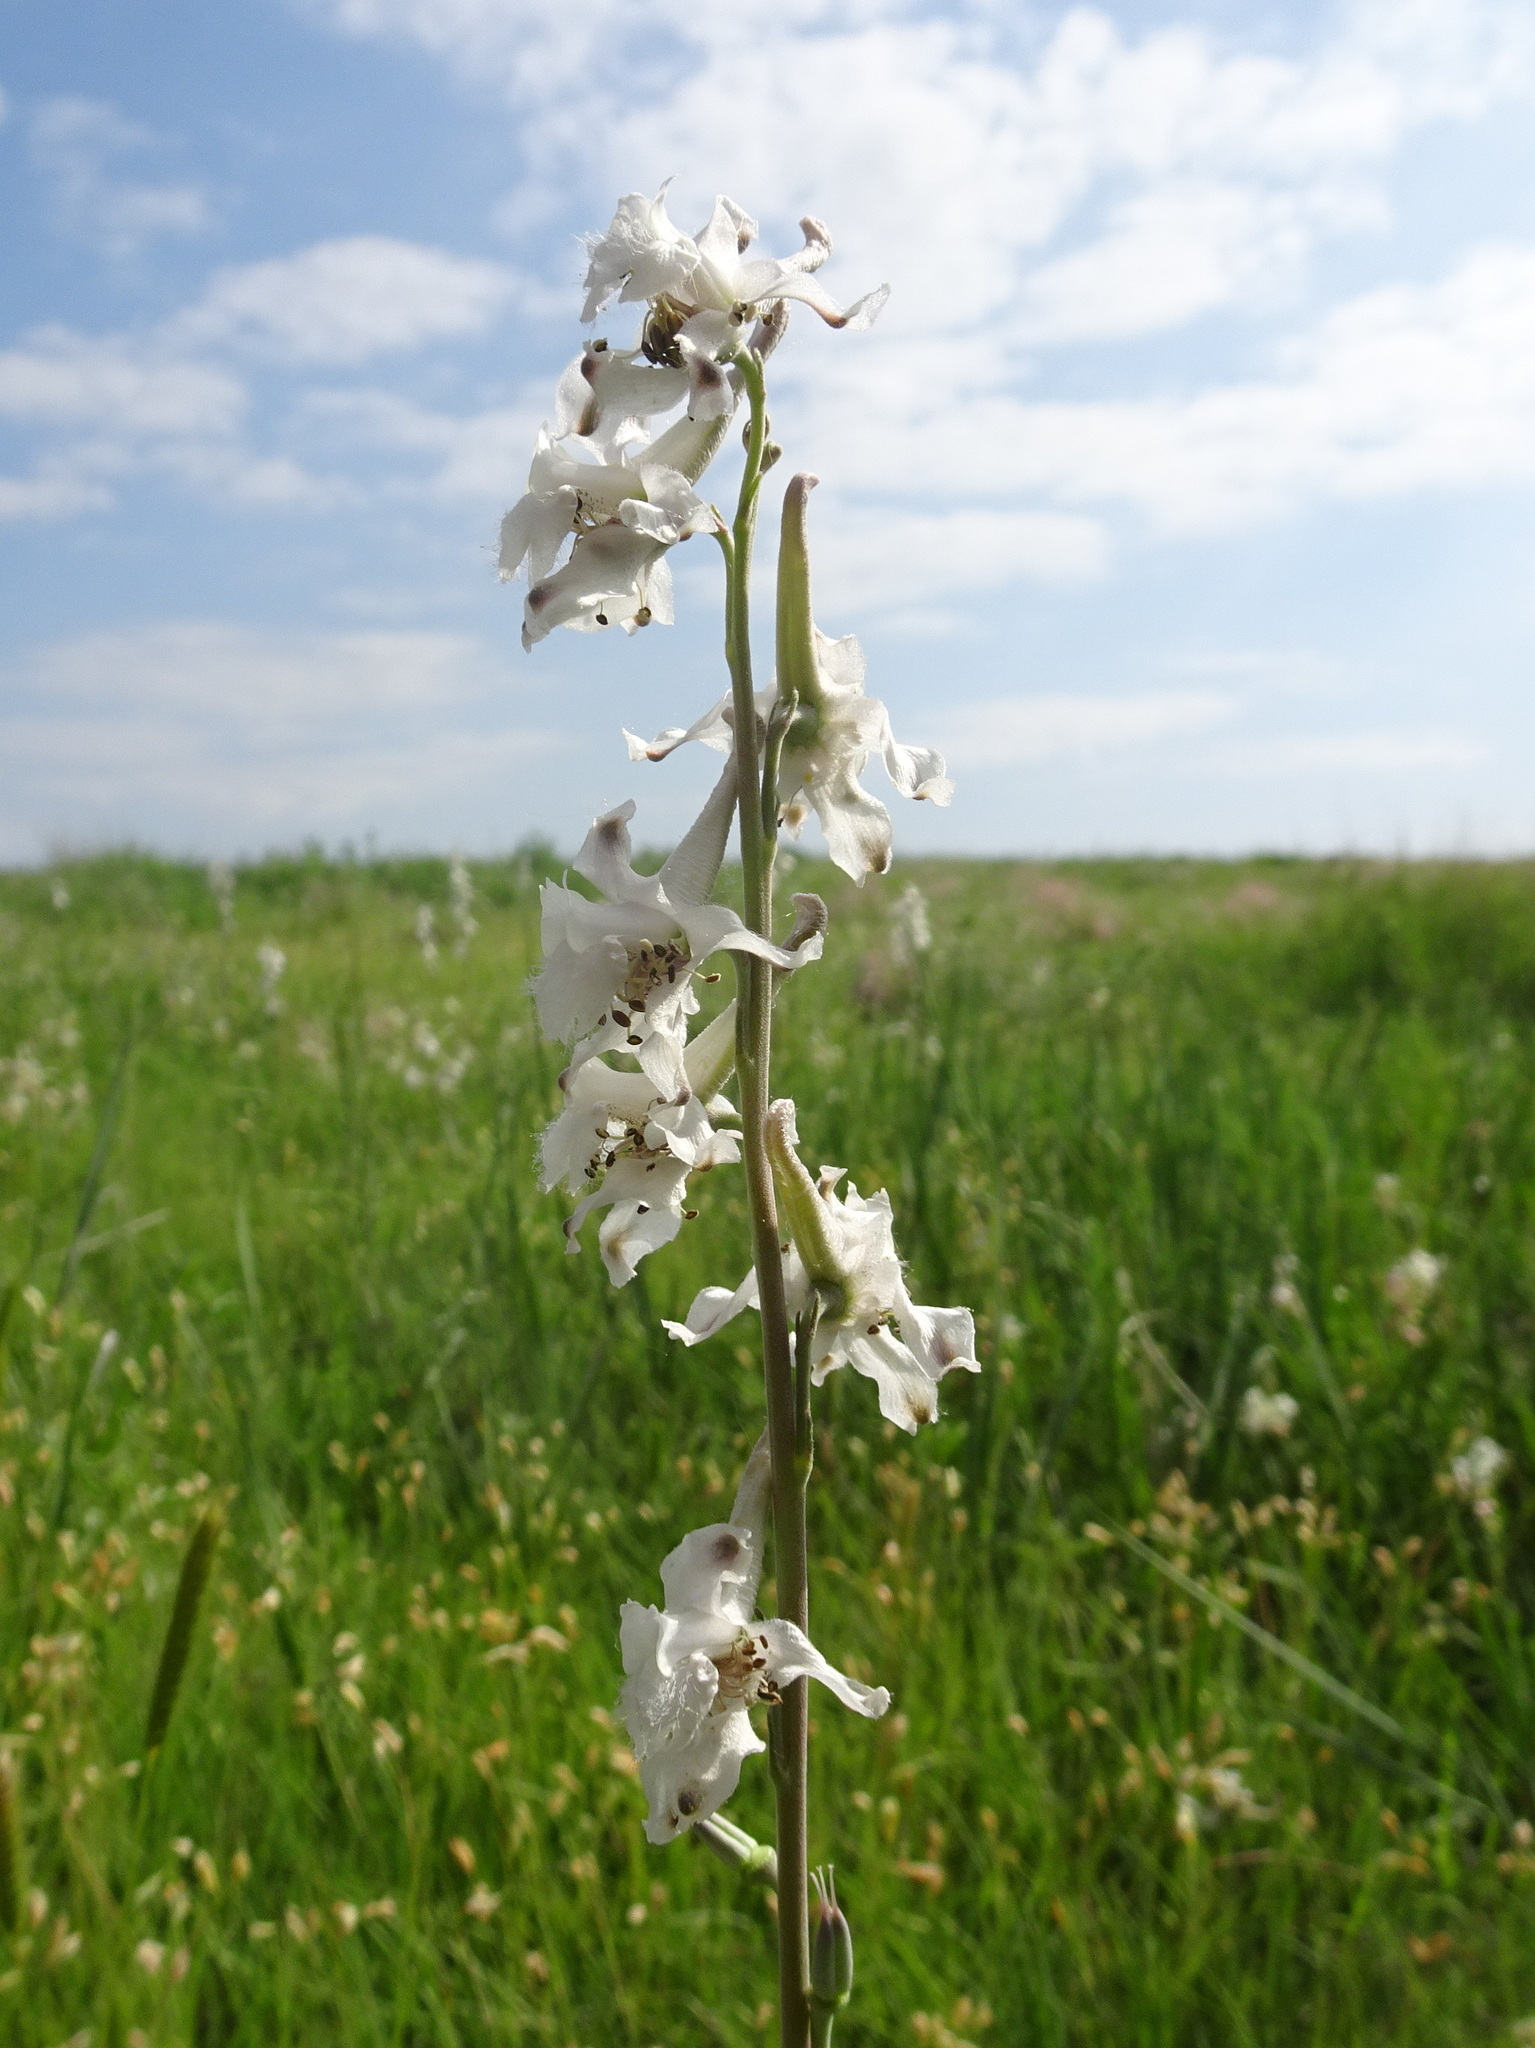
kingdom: Plantae
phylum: Tracheophyta
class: Magnoliopsida
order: Ranunculales
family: Ranunculaceae
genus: Delphinium
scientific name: Delphinium carolinianum
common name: Carolina larkspur
